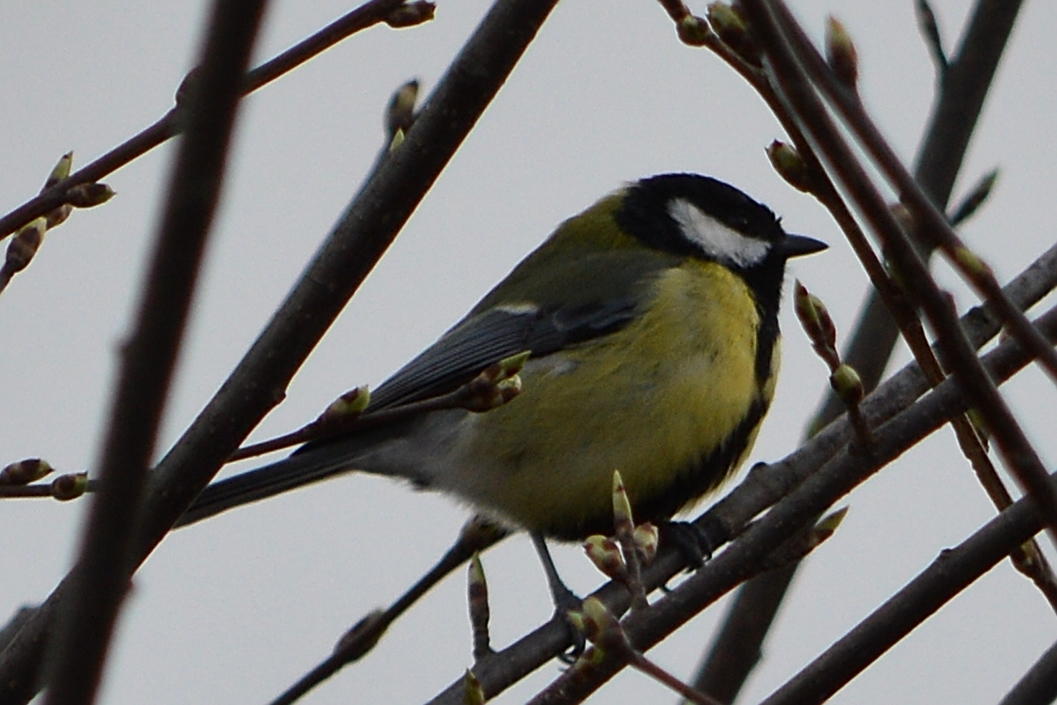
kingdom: Animalia
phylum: Chordata
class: Aves
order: Passeriformes
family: Paridae
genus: Parus
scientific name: Parus major
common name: Great tit
